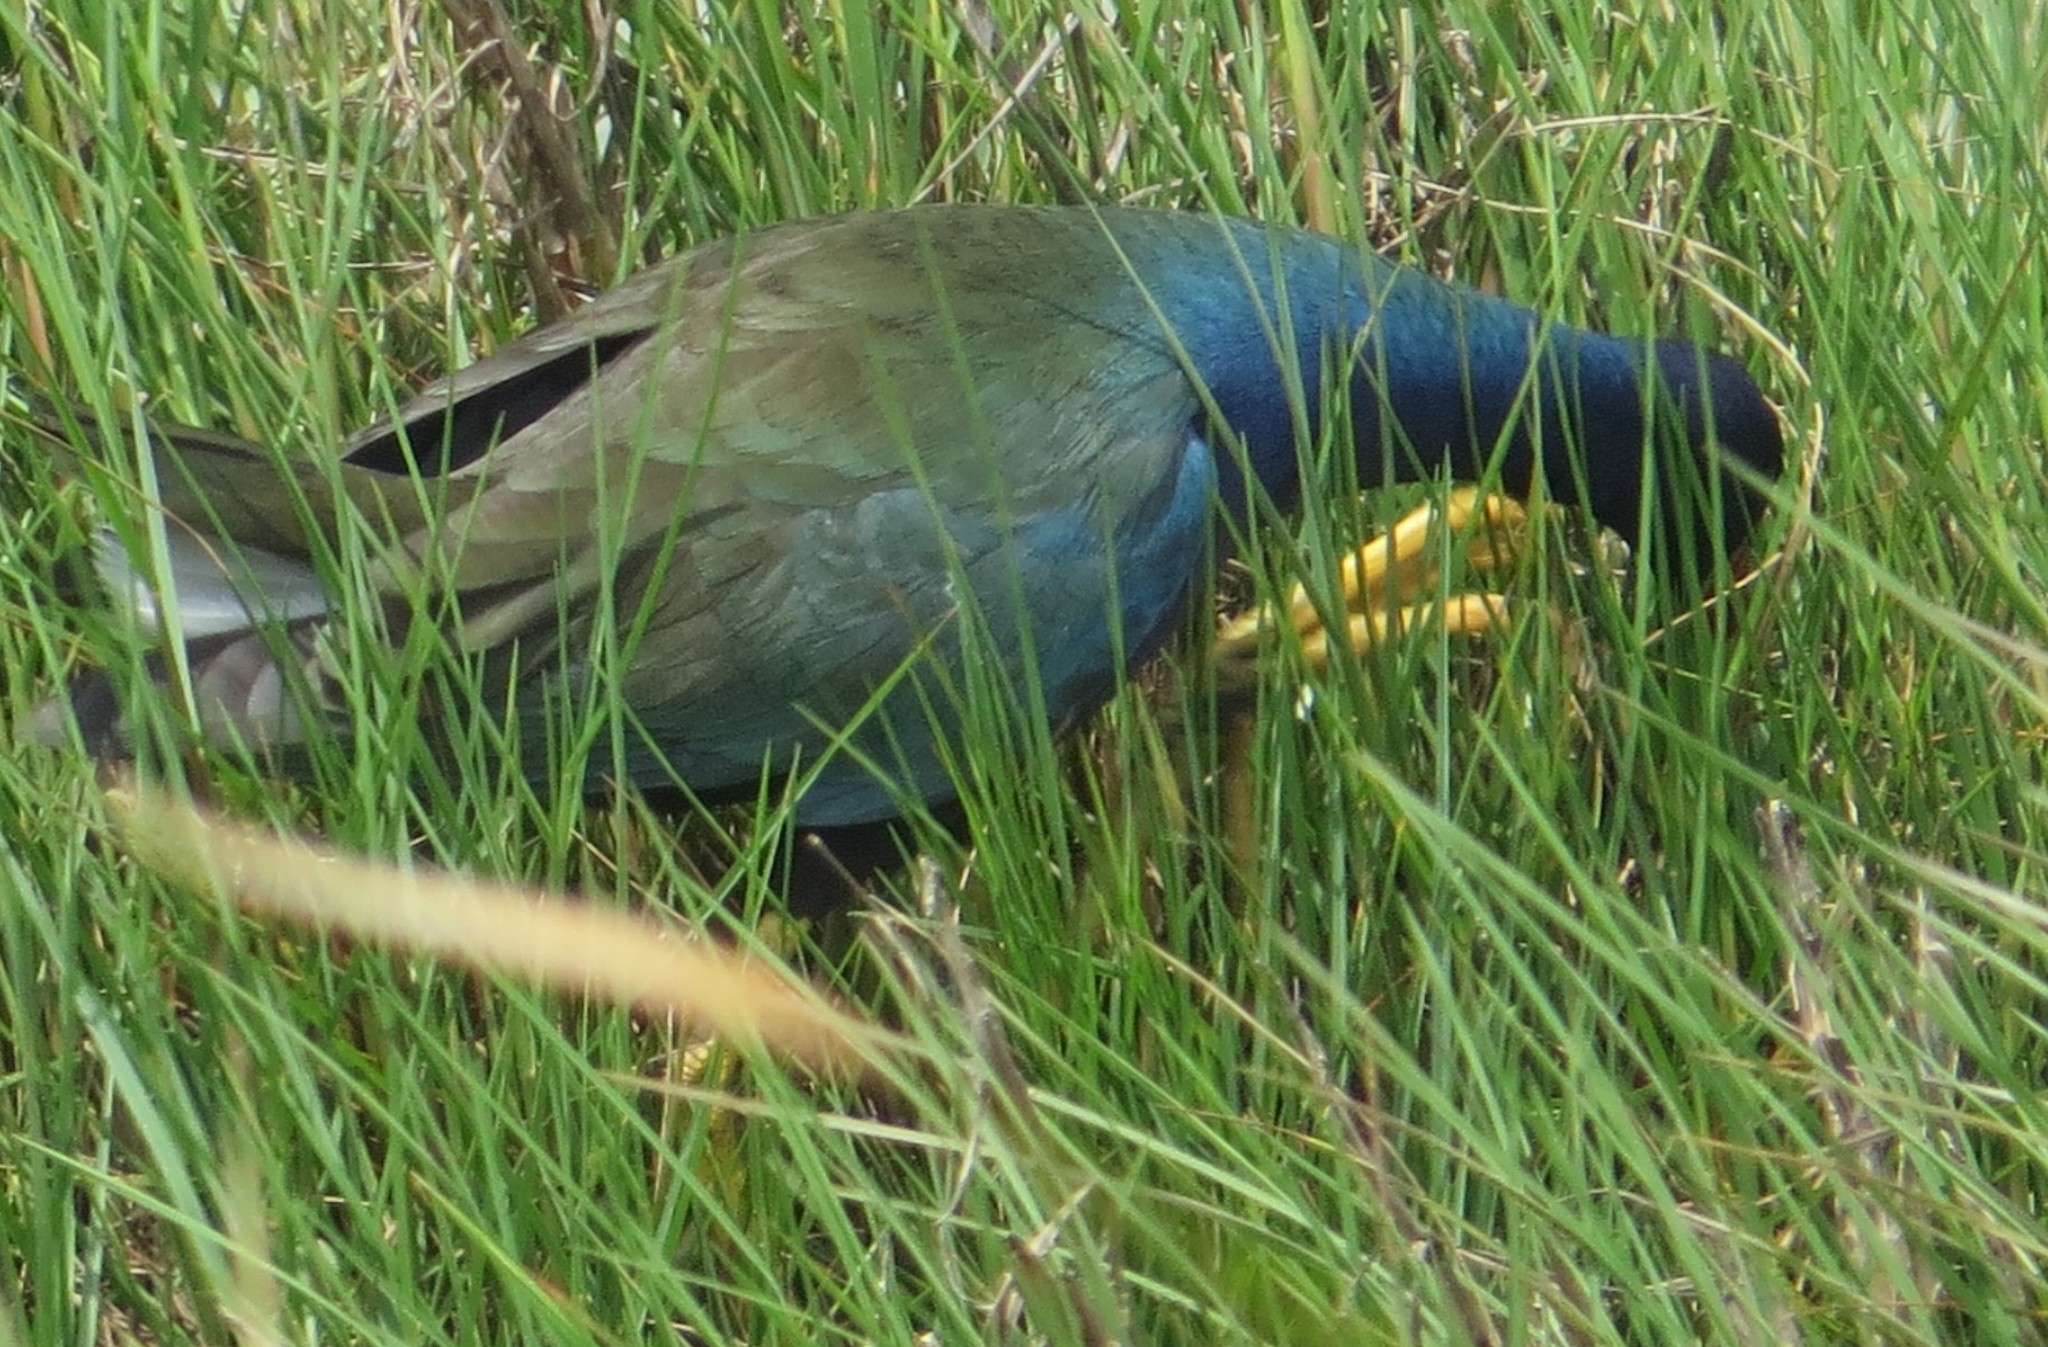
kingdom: Animalia
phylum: Chordata
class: Aves
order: Gruiformes
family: Rallidae
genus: Porphyrio
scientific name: Porphyrio martinica
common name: Purple gallinule
